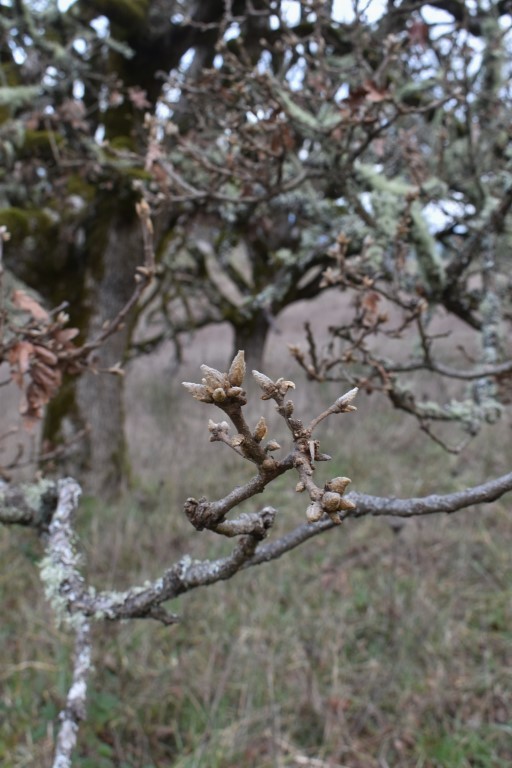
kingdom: Plantae
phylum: Tracheophyta
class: Magnoliopsida
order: Fagales
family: Fagaceae
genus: Quercus
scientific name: Quercus garryana
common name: Garry oak
